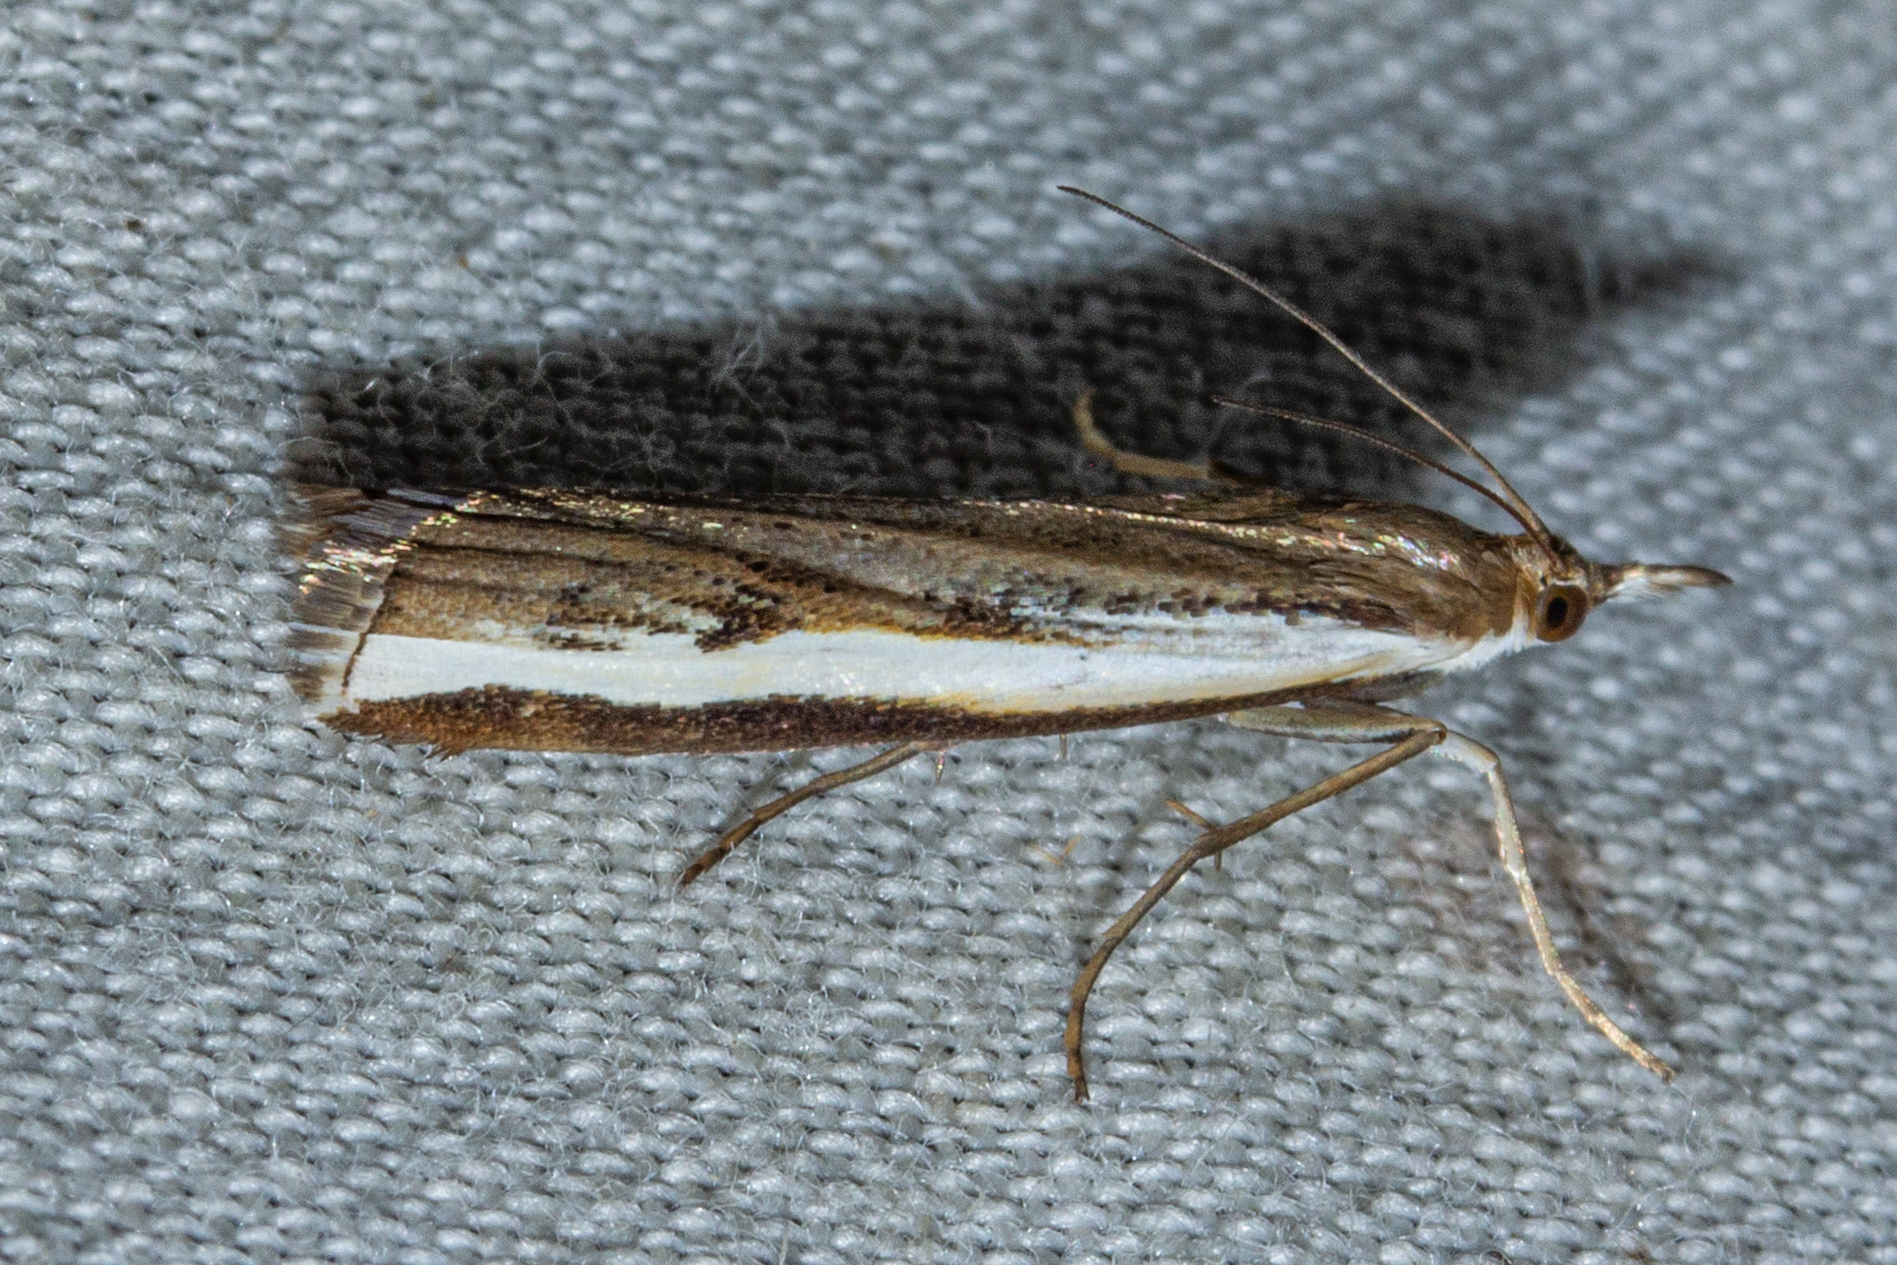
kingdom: Animalia
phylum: Arthropoda
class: Insecta
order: Lepidoptera
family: Crambidae
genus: Orocrambus
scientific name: Orocrambus flexuosellus
